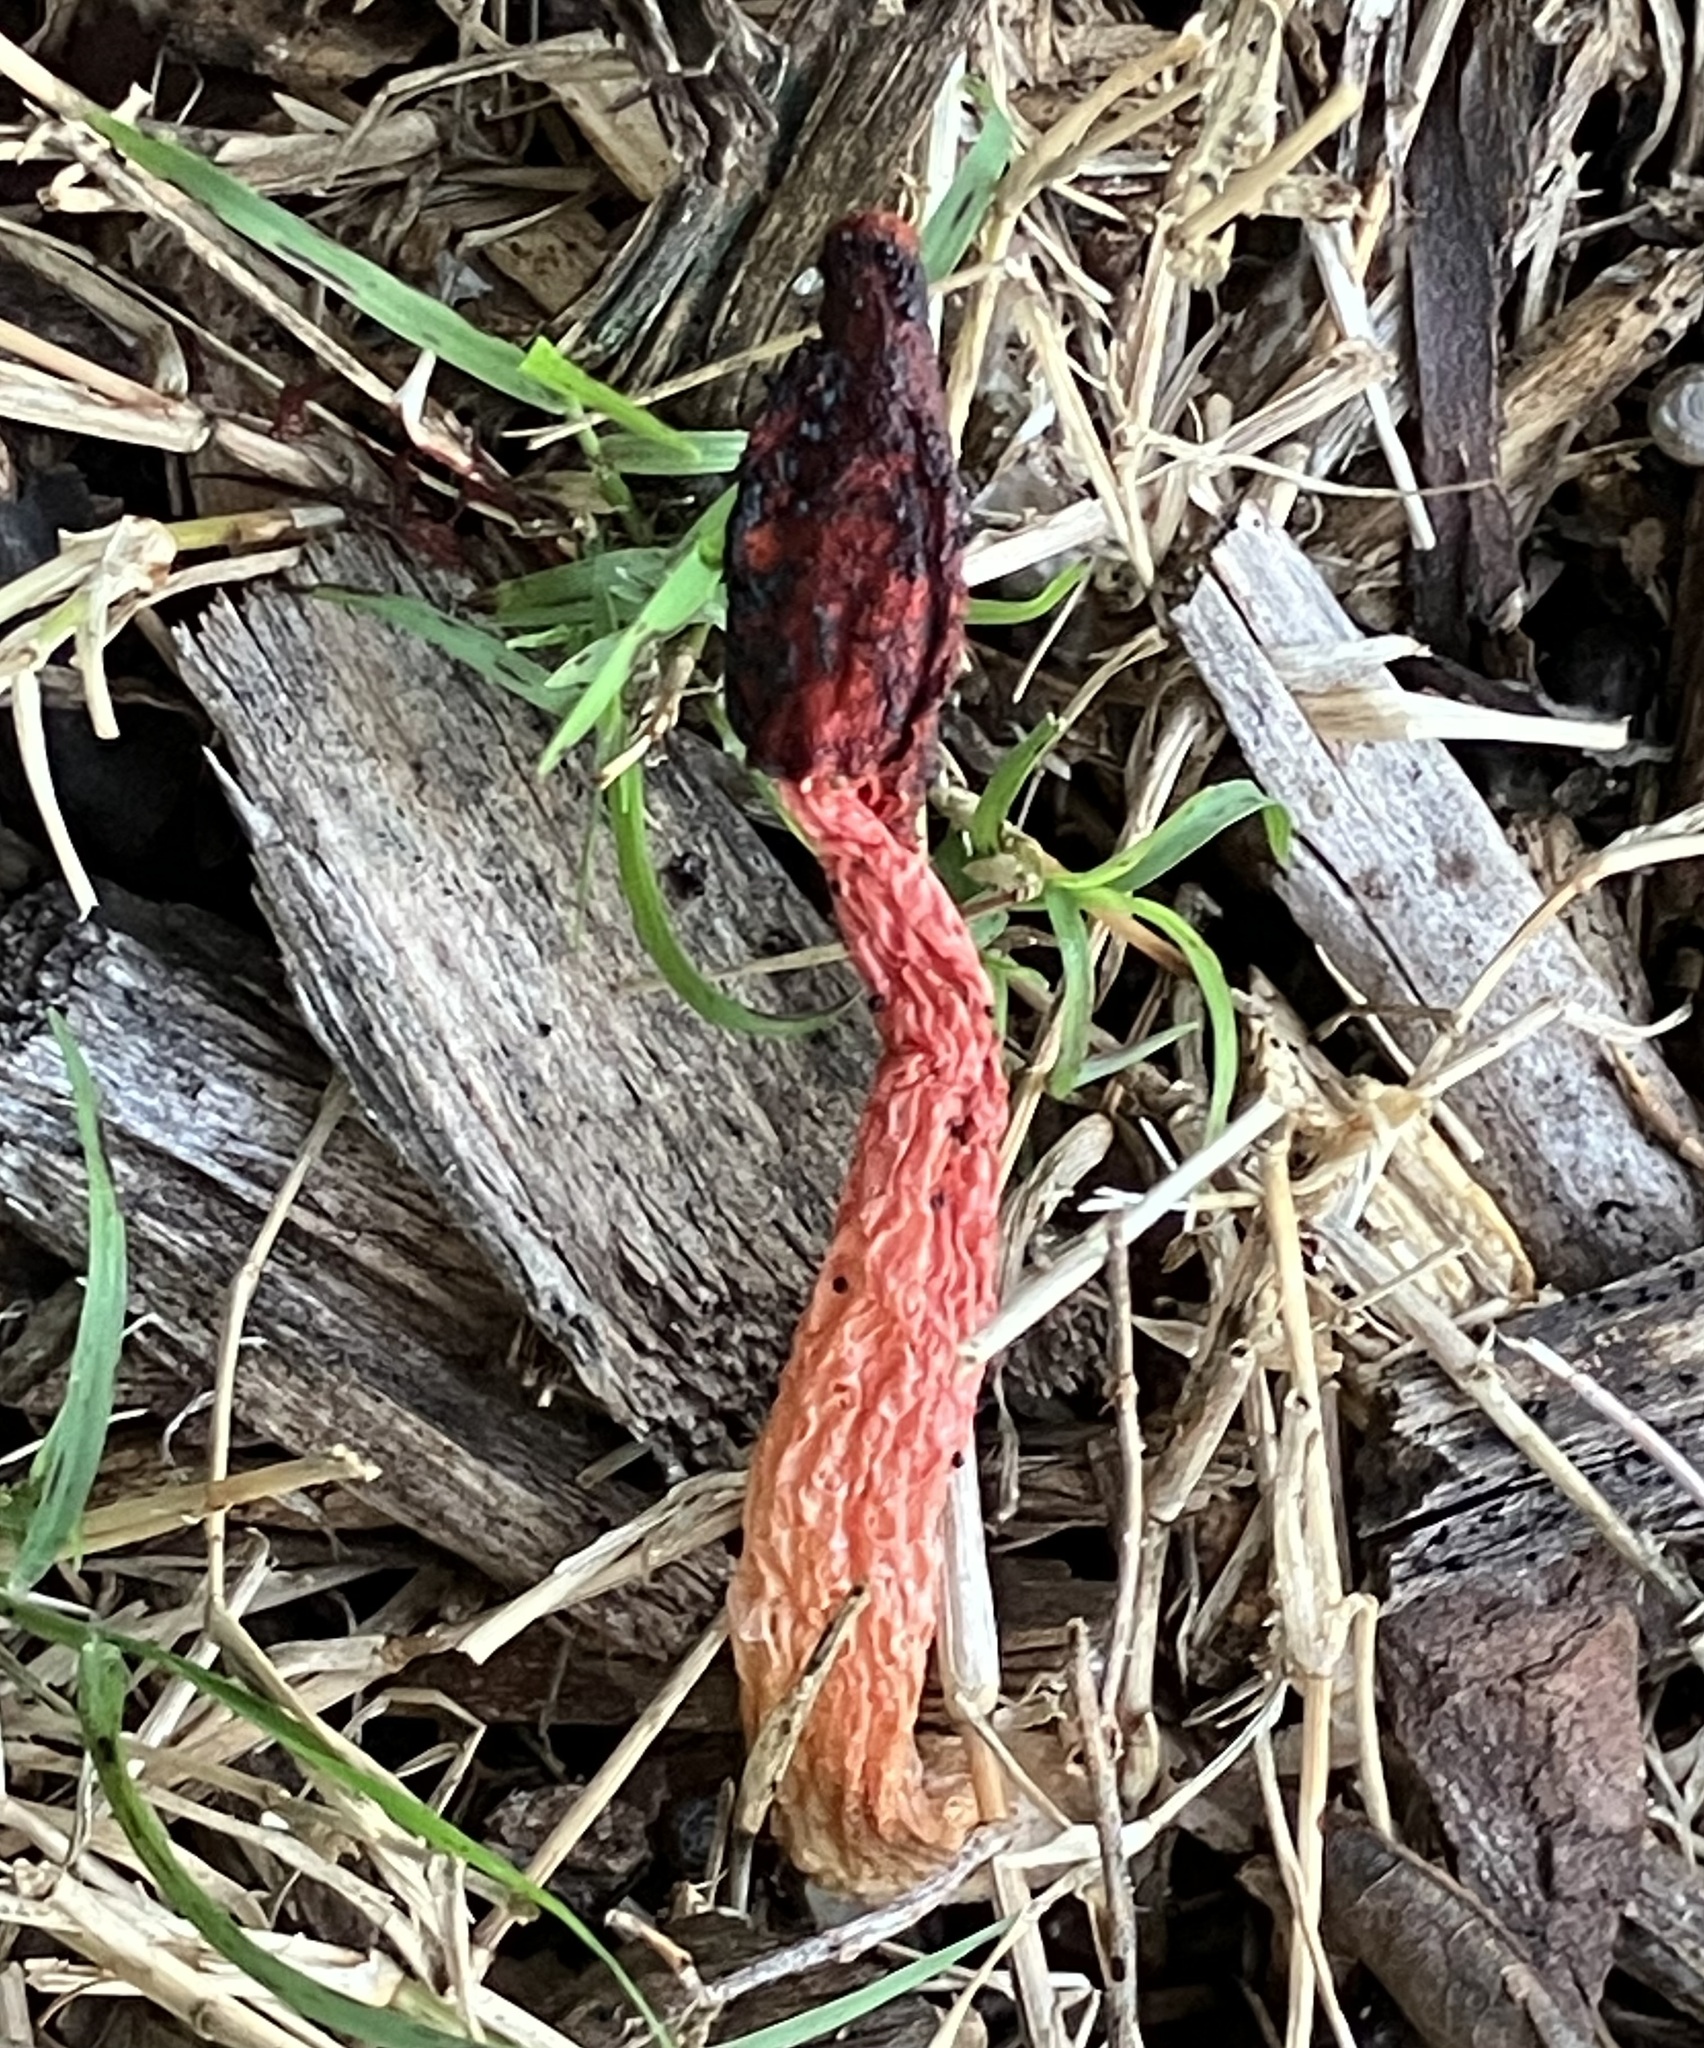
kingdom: Fungi
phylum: Basidiomycota
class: Agaricomycetes
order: Phallales
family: Phallaceae
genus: Phallus
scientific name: Phallus rugulosus
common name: Wrinkly stinkhorn
